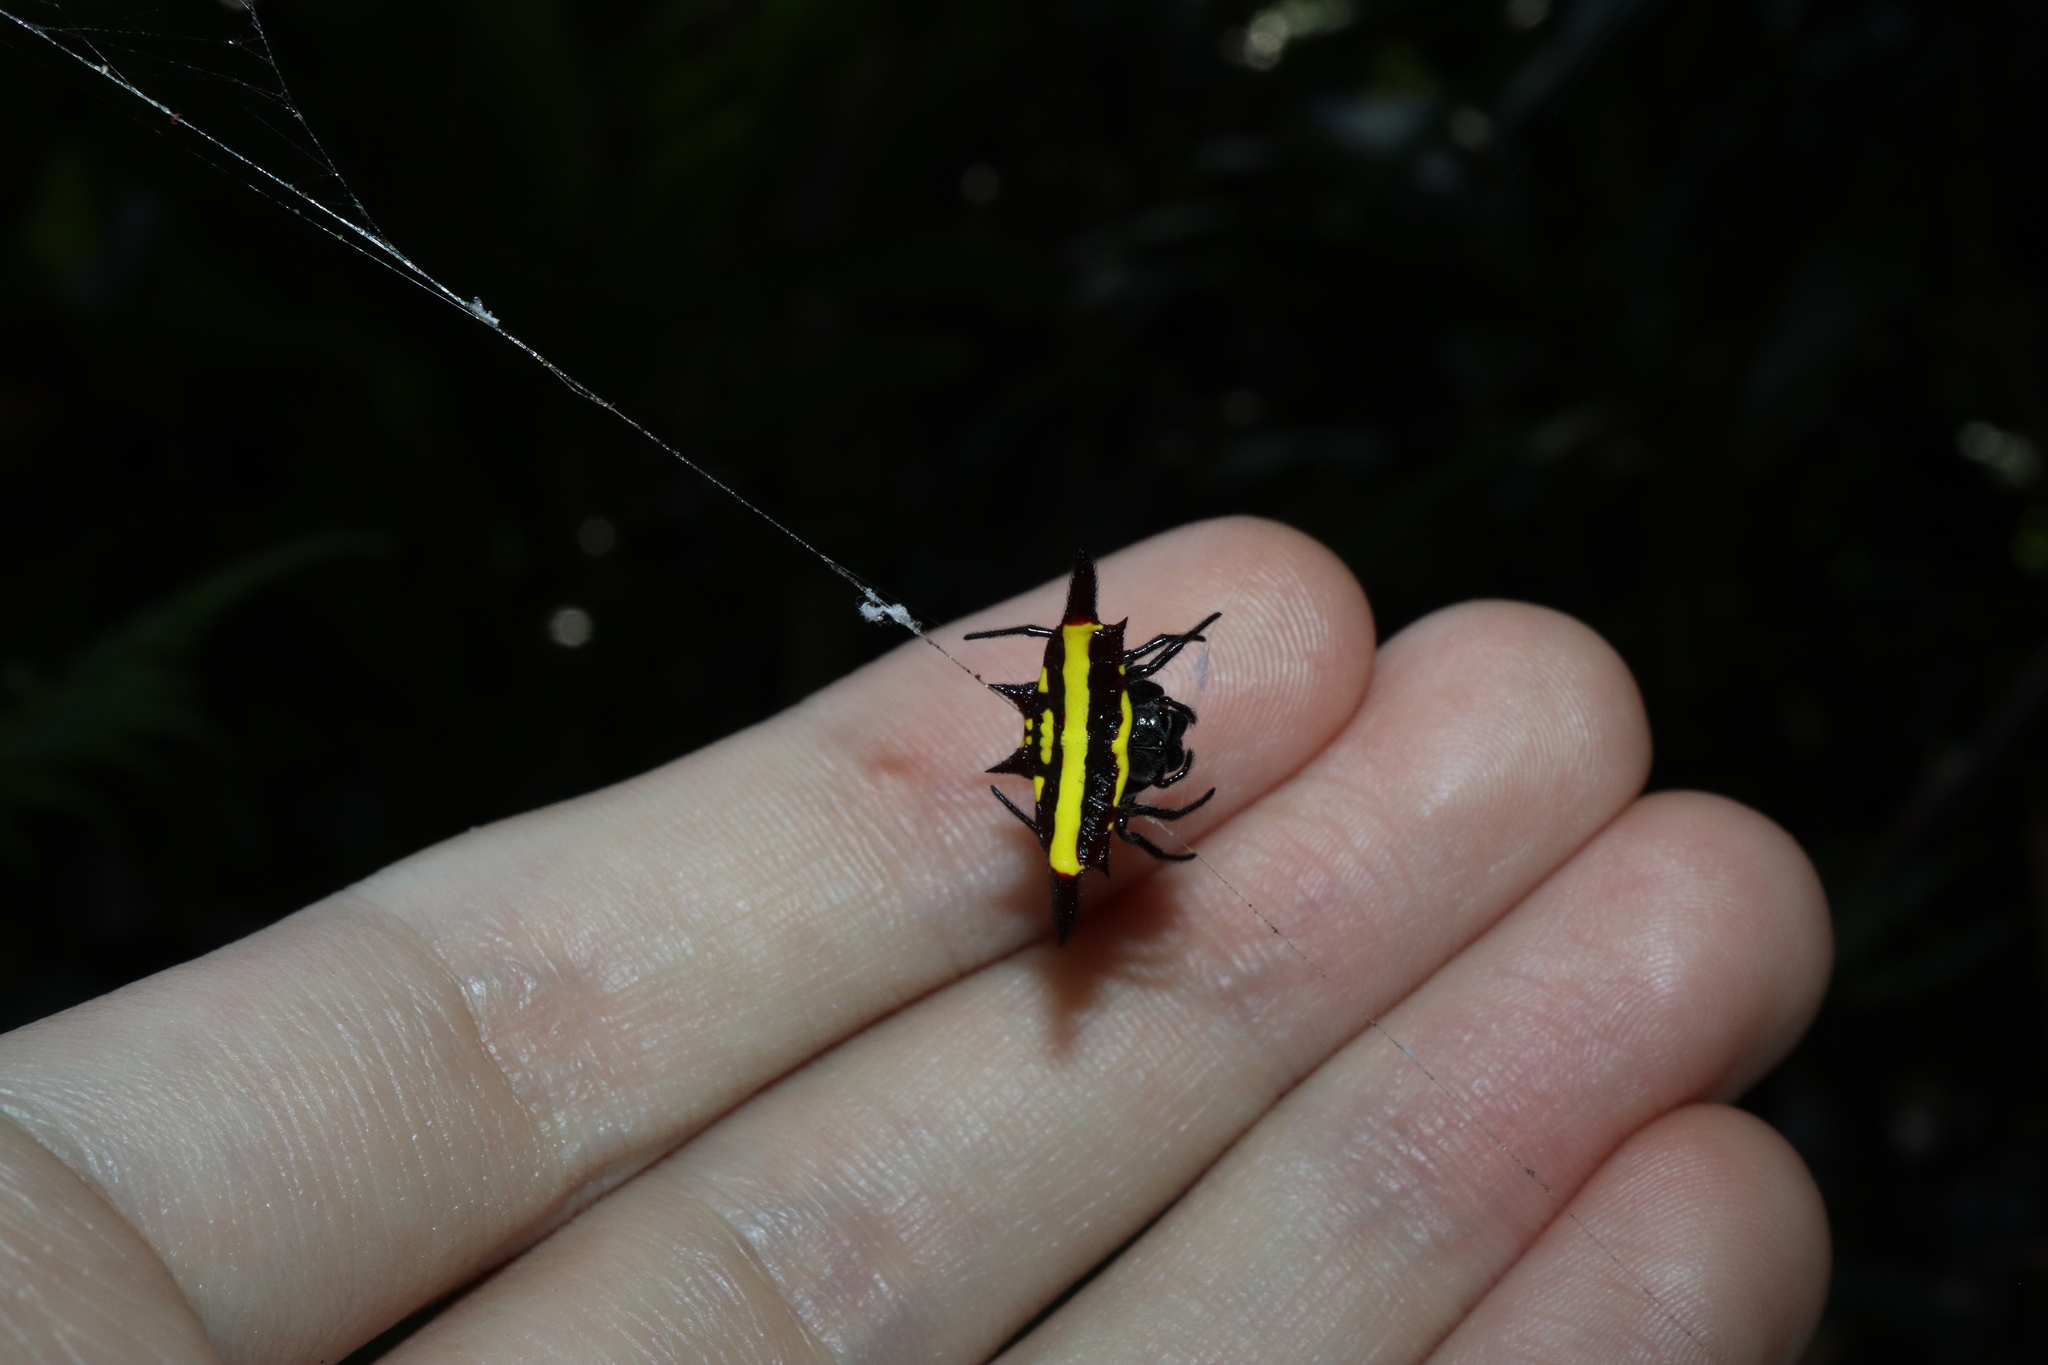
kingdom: Animalia
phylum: Arthropoda
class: Arachnida
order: Araneae
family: Araneidae
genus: Gasteracantha
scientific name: Gasteracantha fornicata
